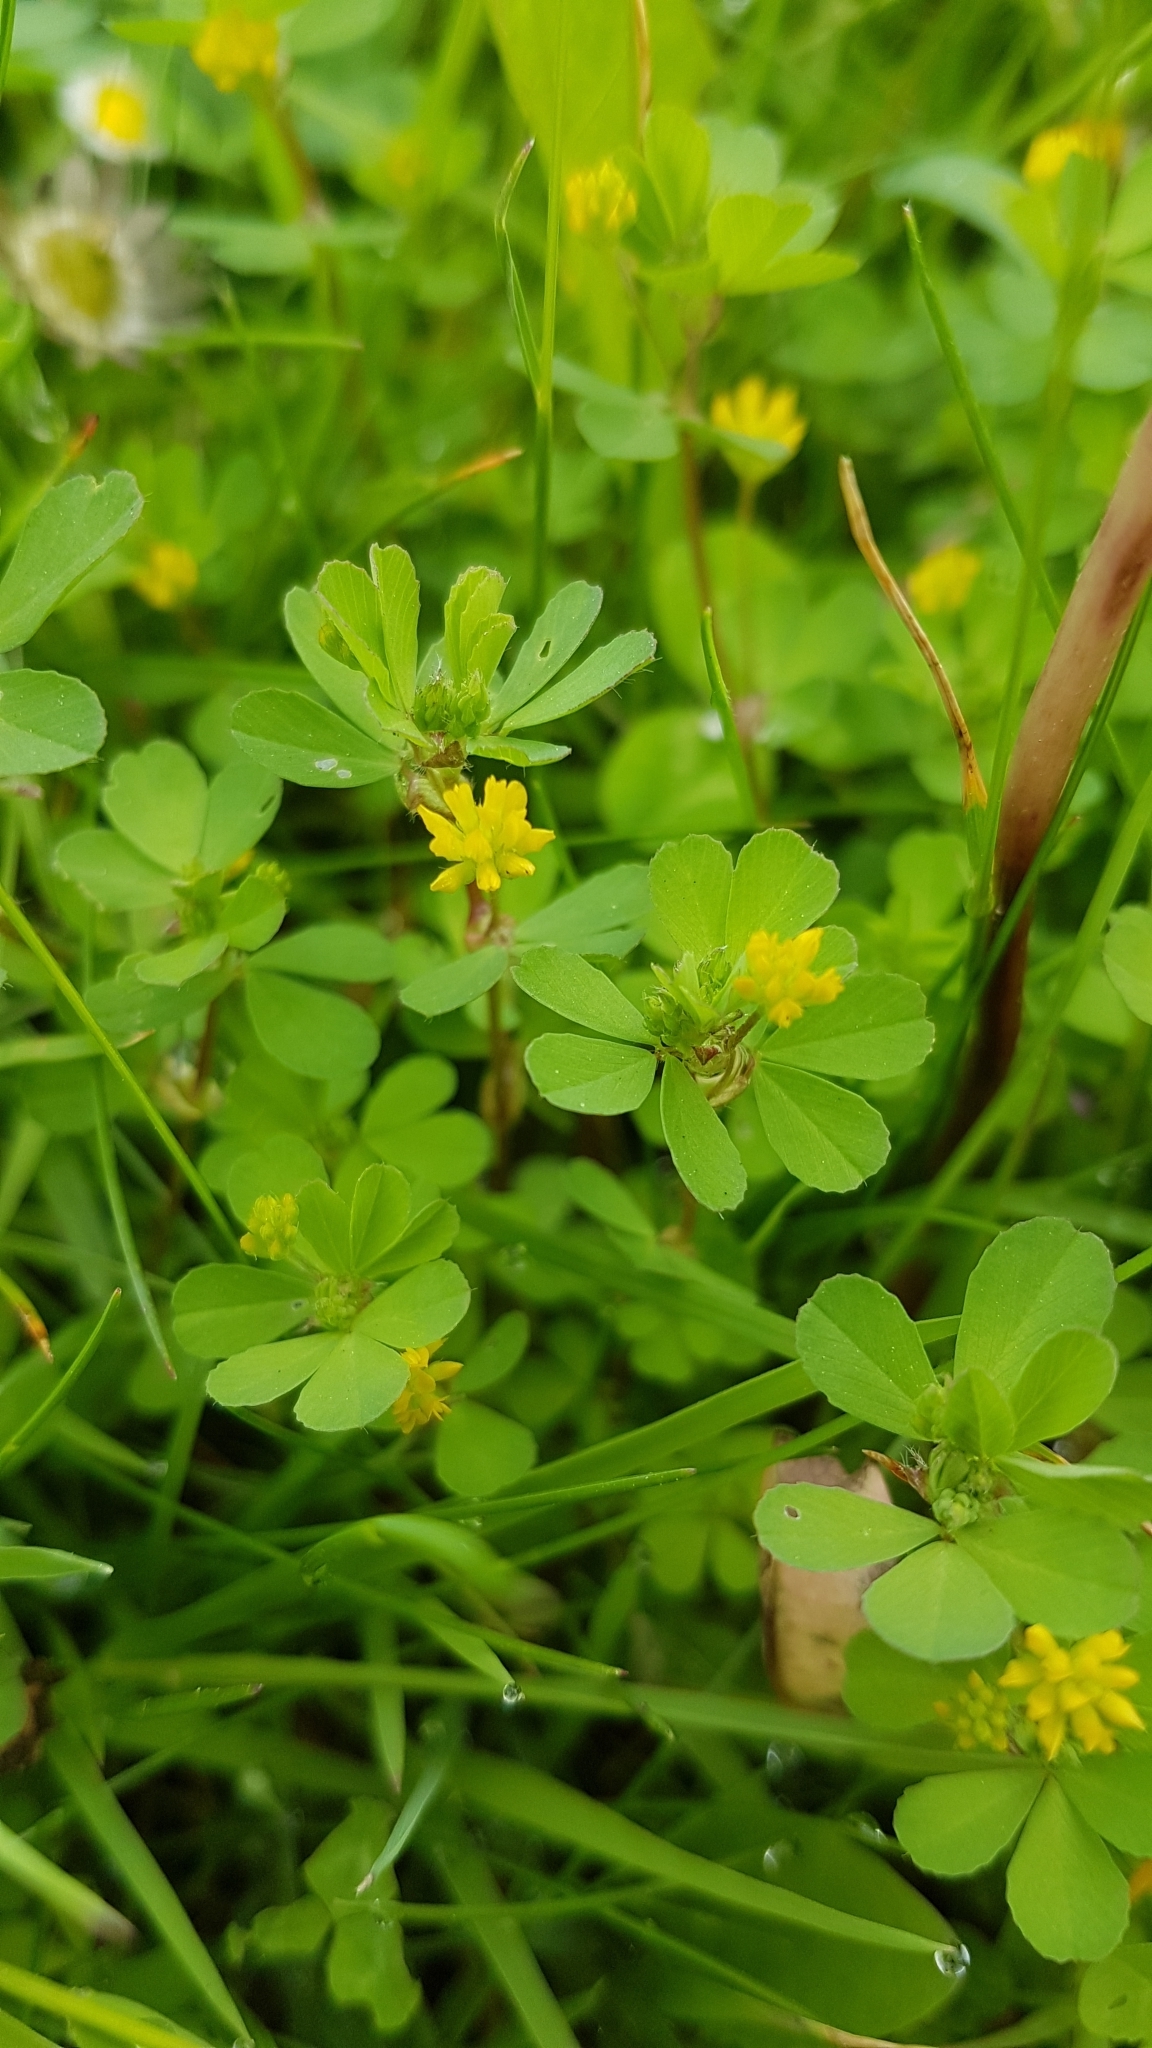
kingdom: Plantae
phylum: Tracheophyta
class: Magnoliopsida
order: Fabales
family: Fabaceae
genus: Trifolium
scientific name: Trifolium dubium
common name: Suckling clover
